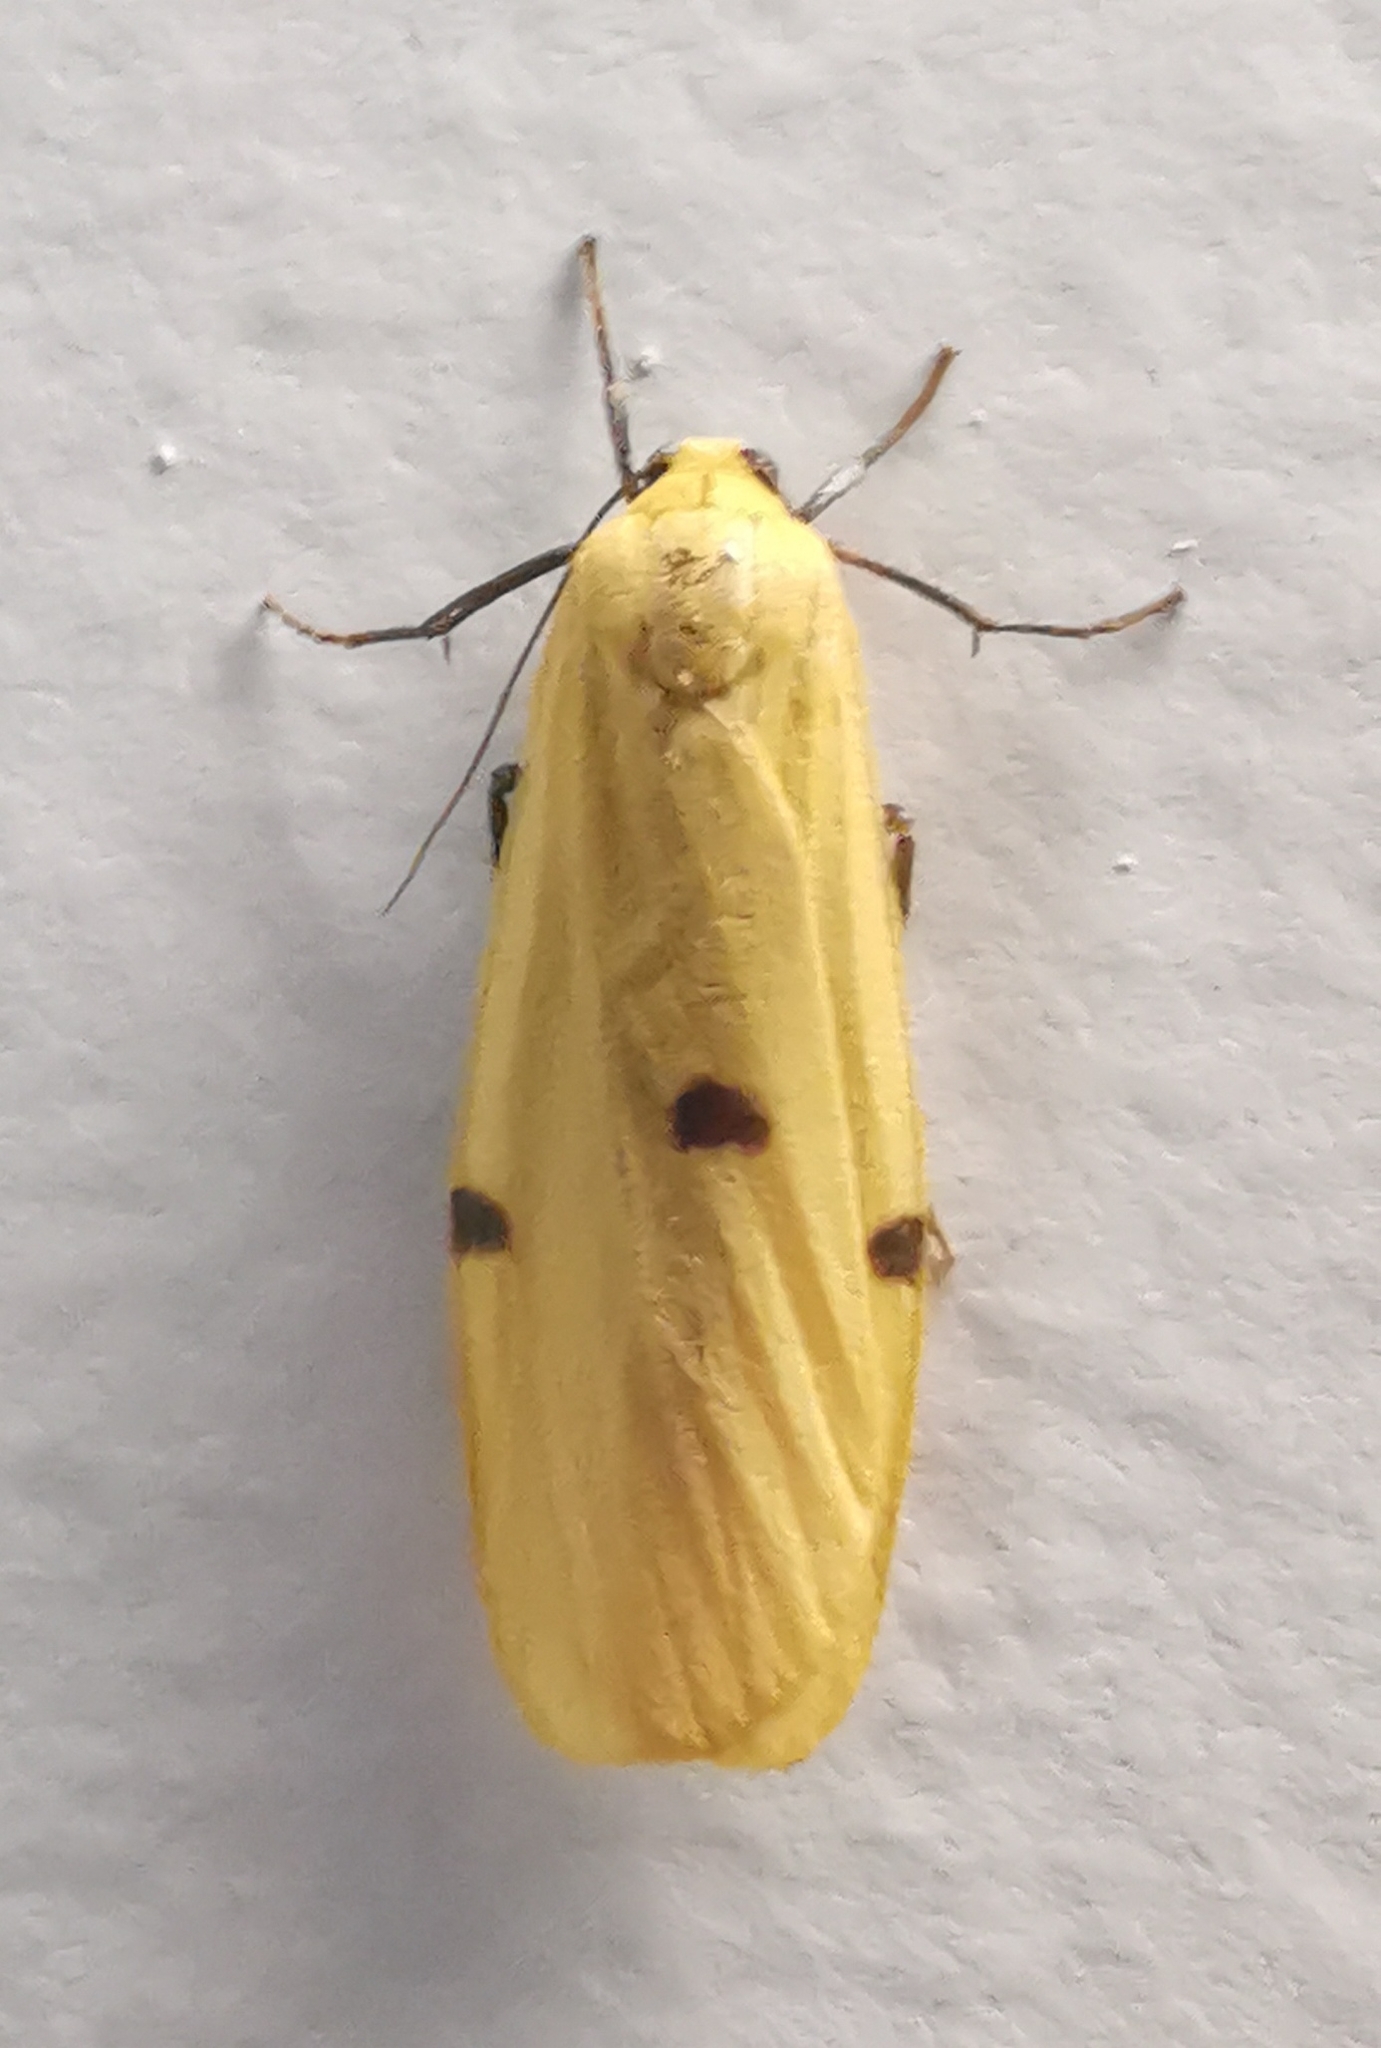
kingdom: Animalia
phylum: Arthropoda
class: Insecta
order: Lepidoptera
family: Erebidae
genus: Lithosia
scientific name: Lithosia quadra
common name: Four-spotted footman
